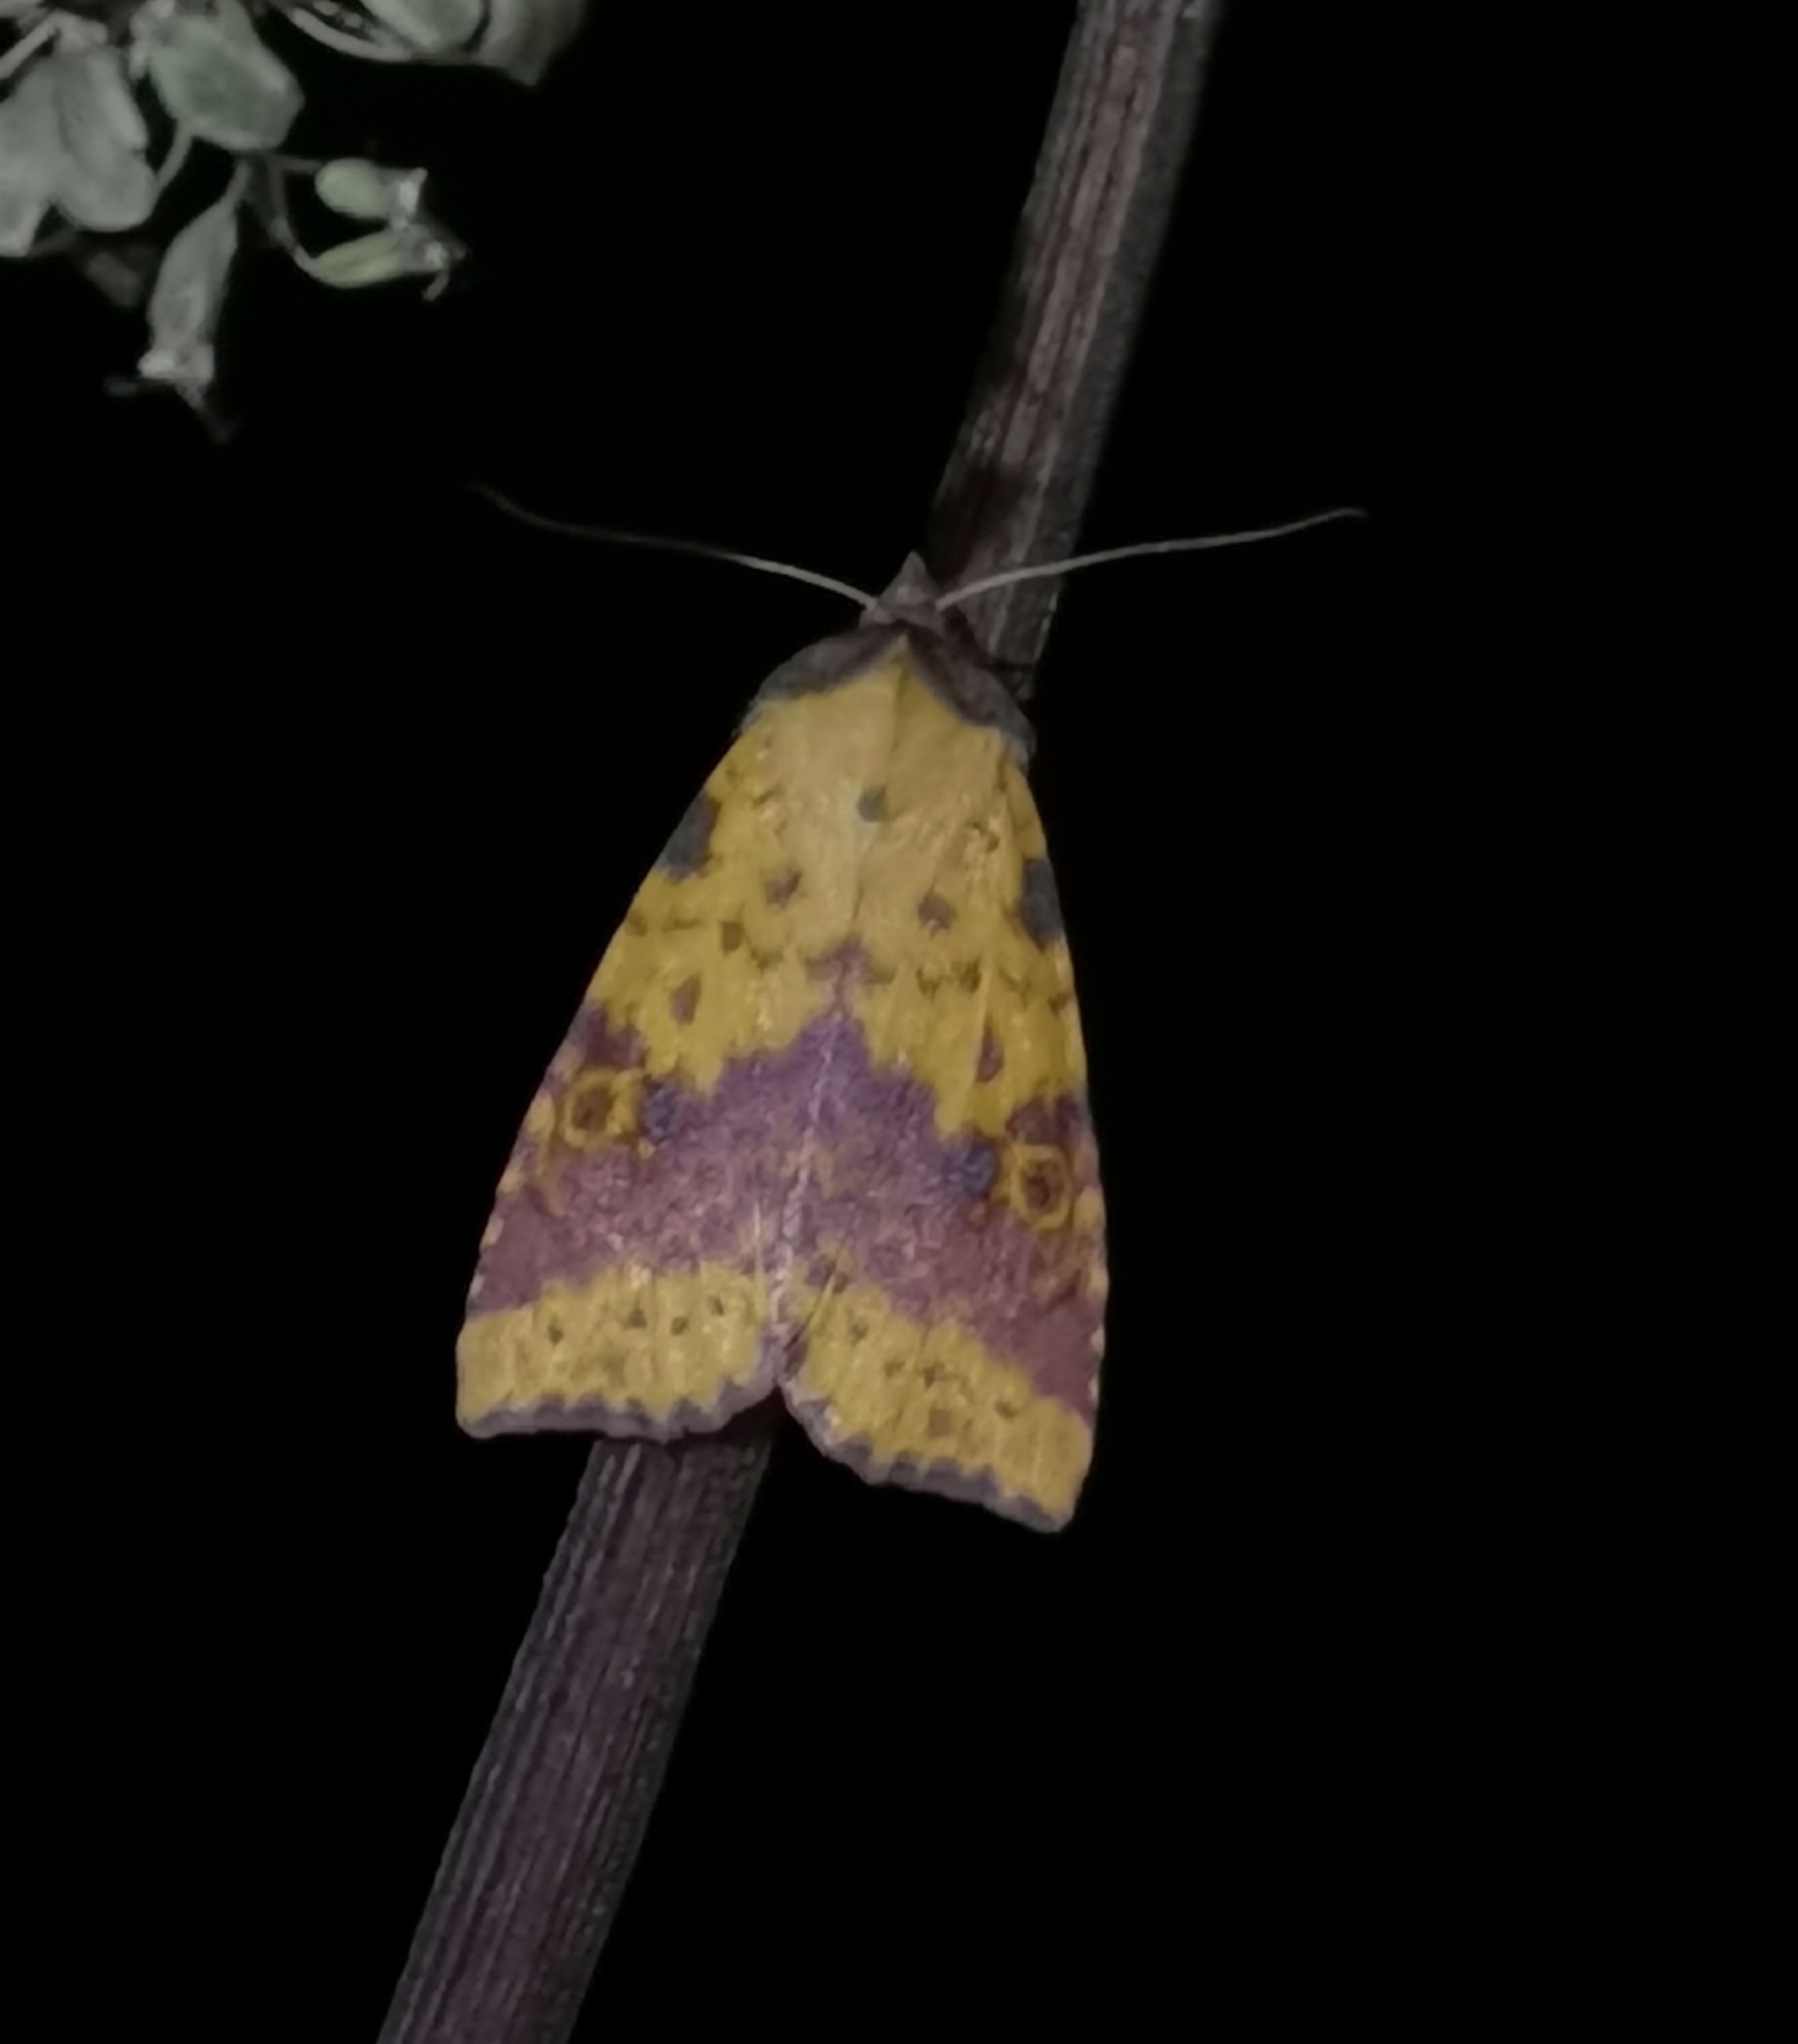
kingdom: Animalia
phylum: Arthropoda
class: Insecta
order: Lepidoptera
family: Noctuidae
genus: Xanthia
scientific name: Xanthia togata
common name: Pink-barred sallow
